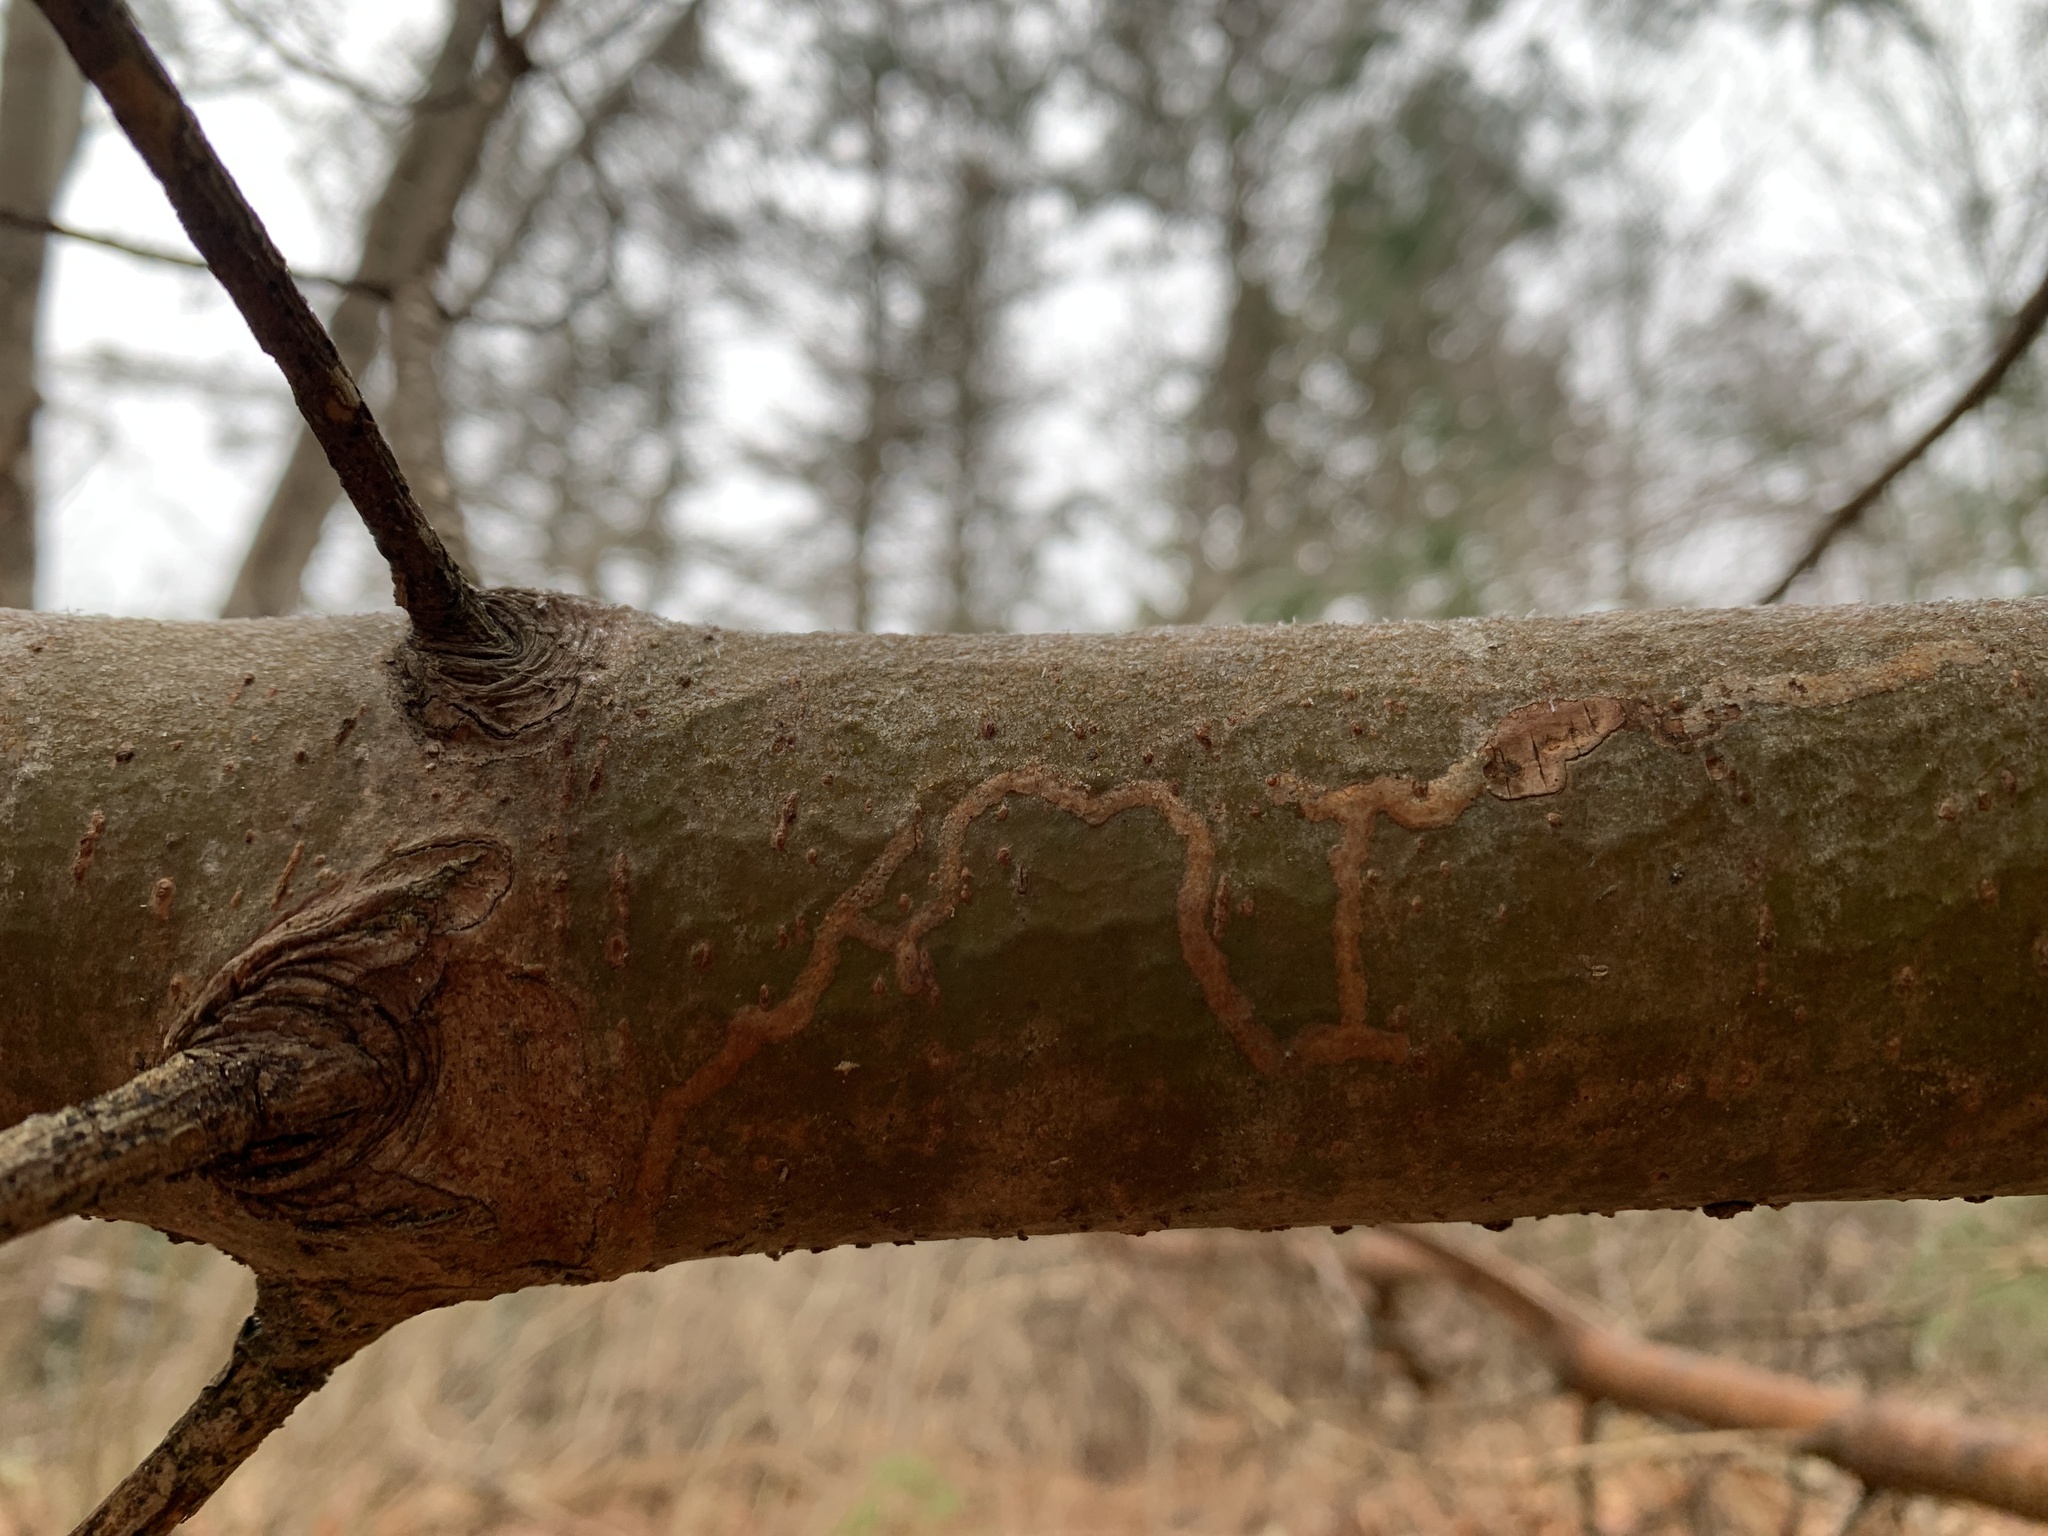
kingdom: Animalia
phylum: Arthropoda
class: Insecta
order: Lepidoptera
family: Gracillariidae
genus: Marmara
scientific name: Marmara fasciella
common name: White pine barkminer moth
